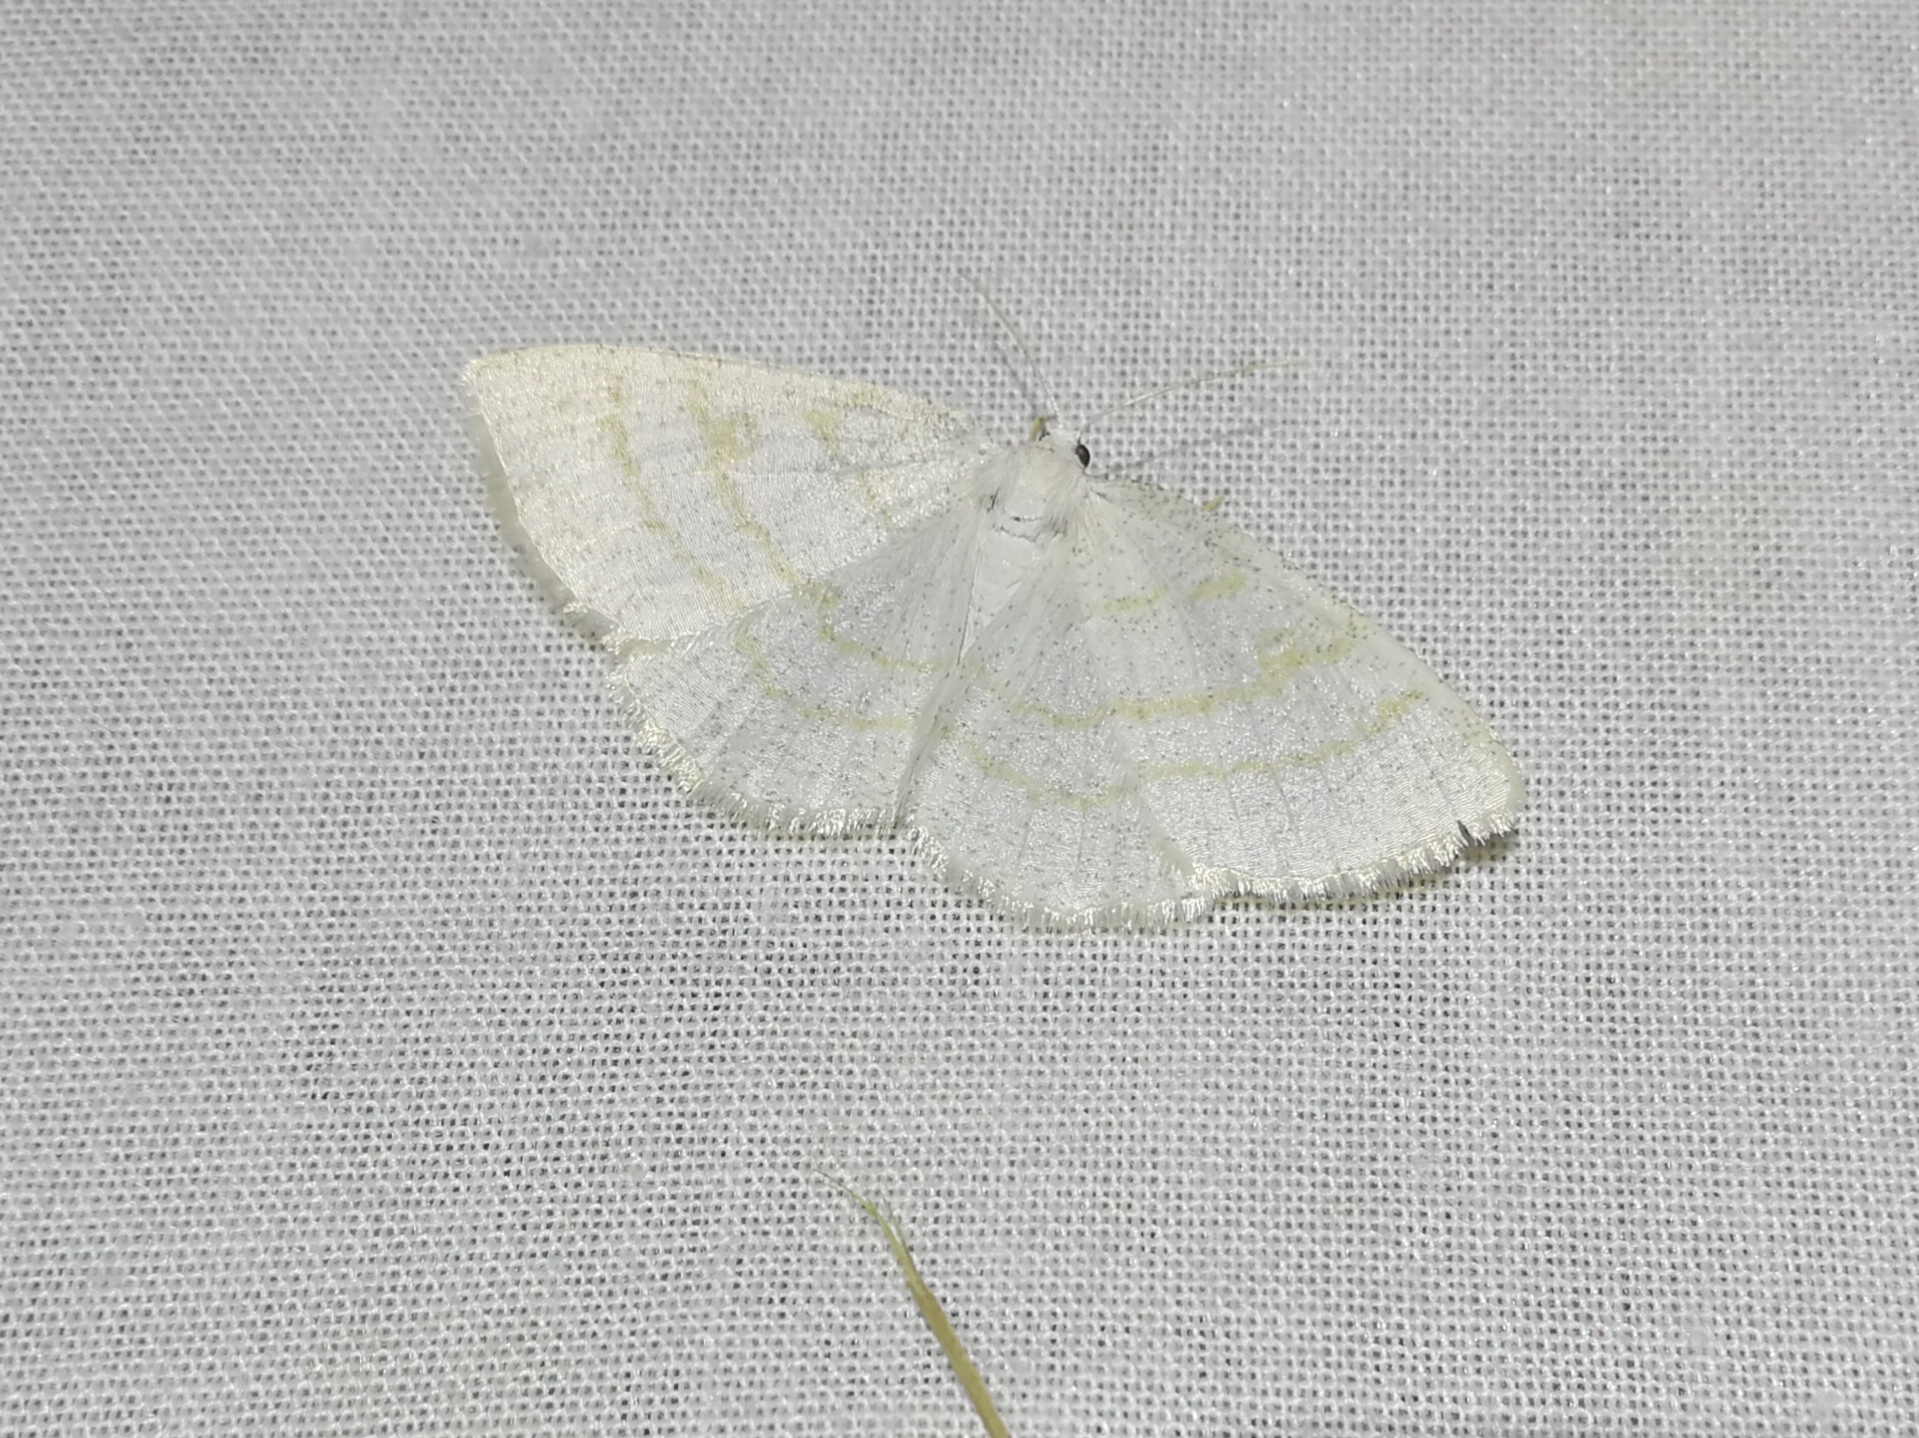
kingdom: Animalia
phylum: Arthropoda
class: Insecta
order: Lepidoptera
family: Geometridae
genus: Cabera
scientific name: Cabera exanthemata
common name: Common wave
